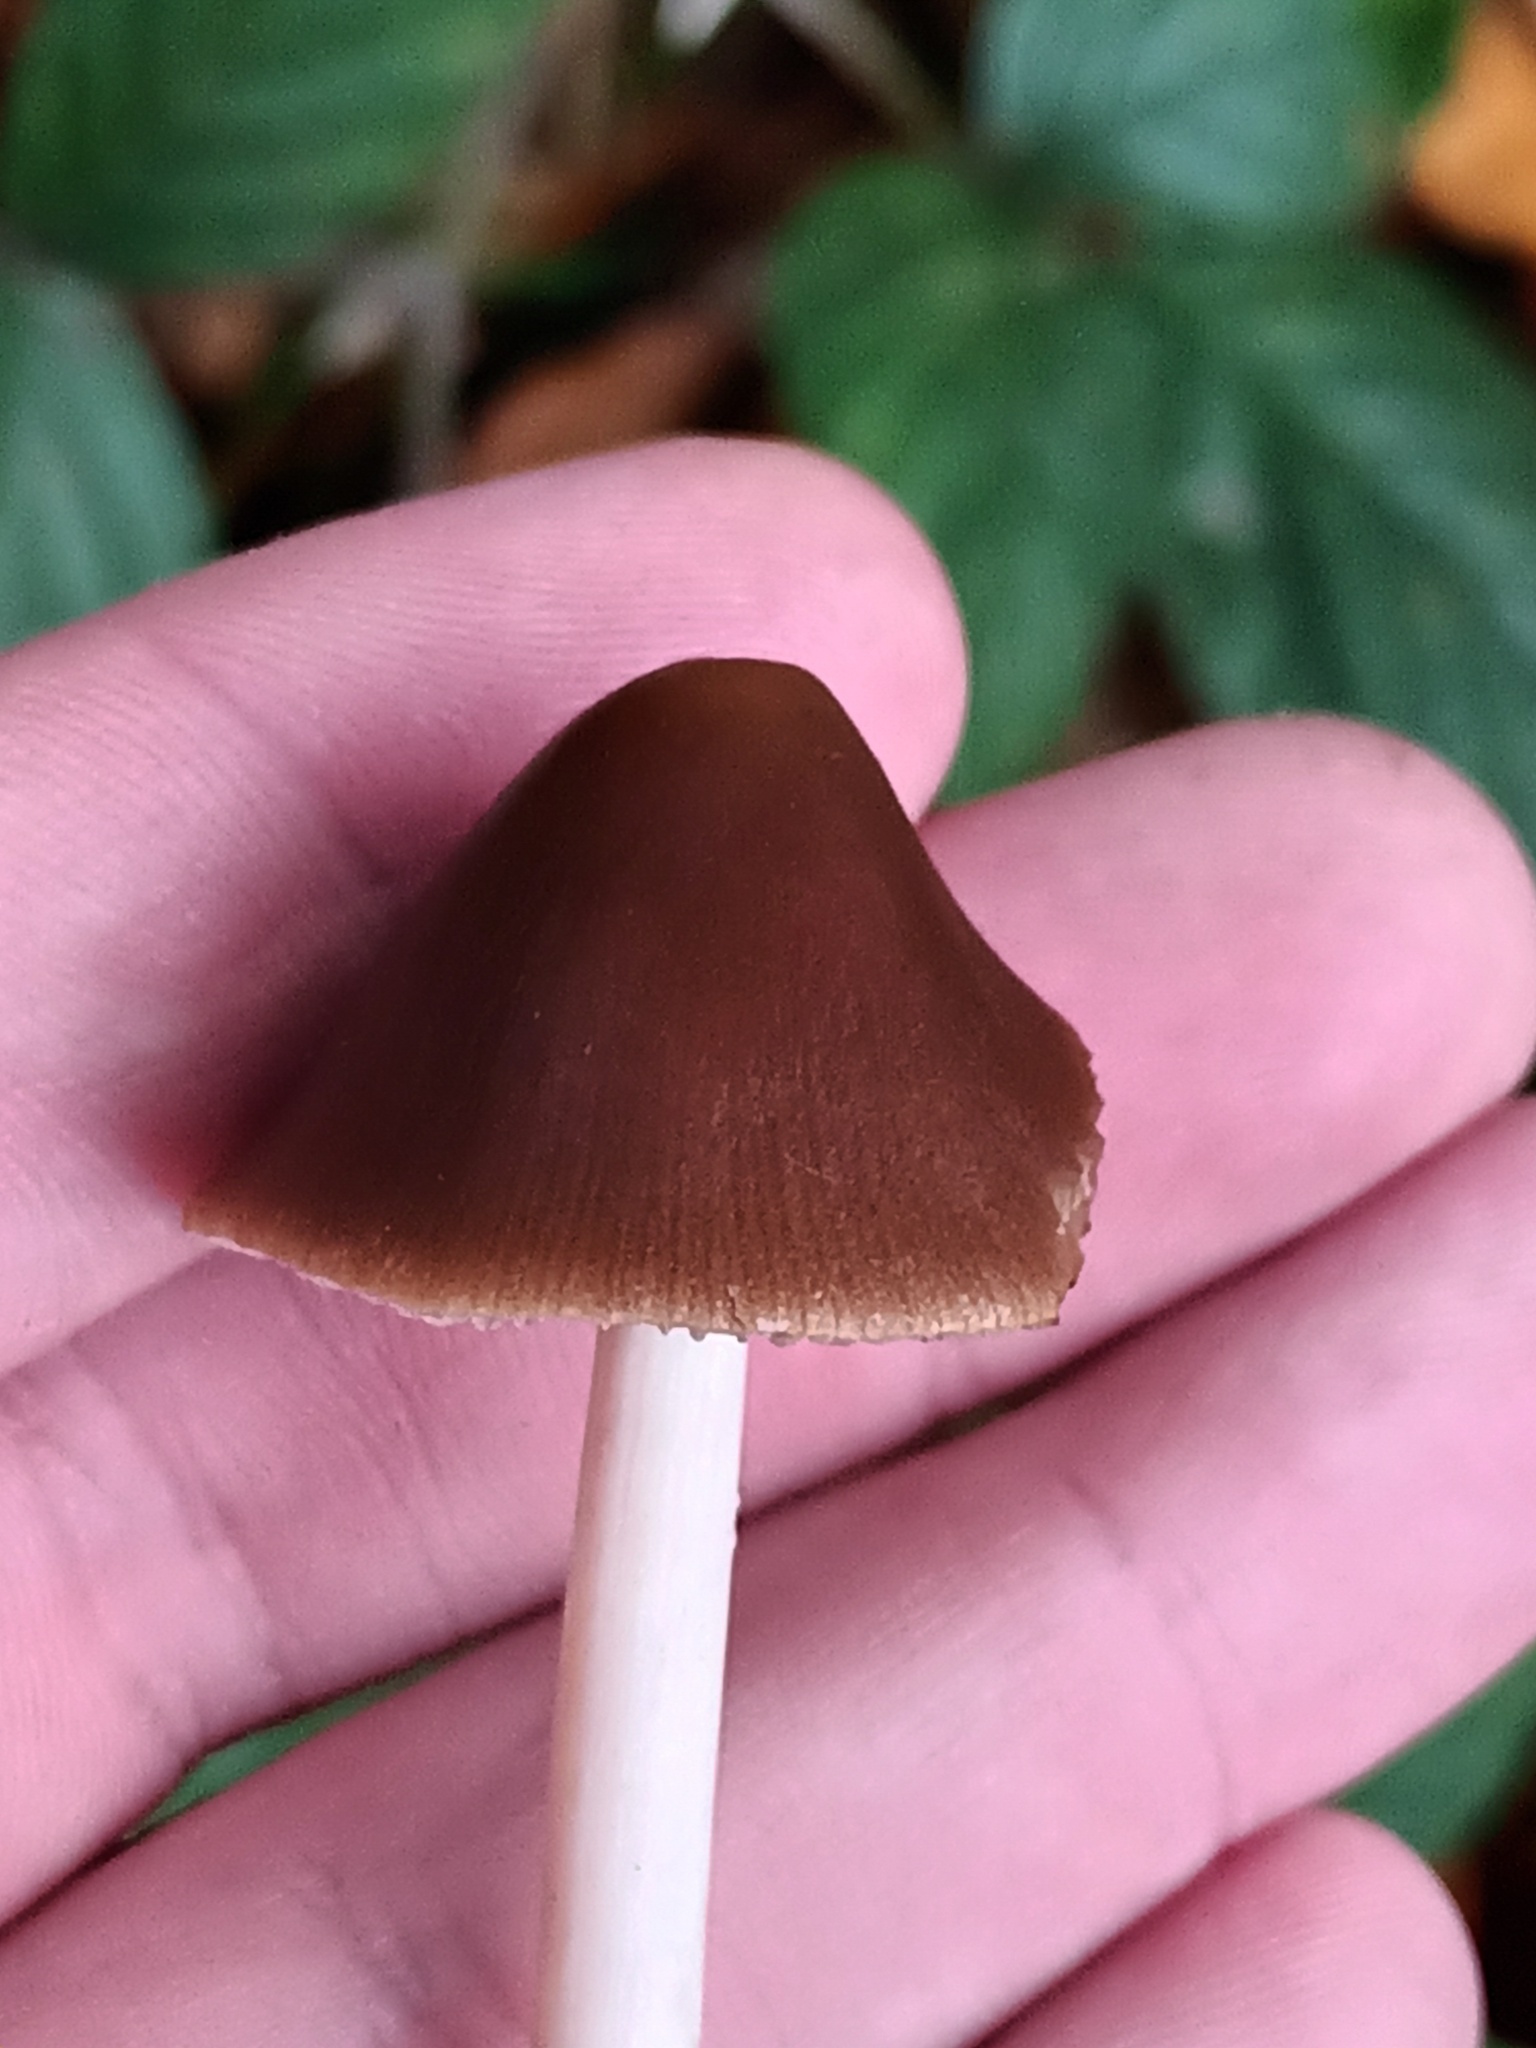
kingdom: Fungi
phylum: Basidiomycota
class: Agaricomycetes
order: Agaricales
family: Psathyrellaceae
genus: Parasola
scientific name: Parasola conopilea
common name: Conical brittlestem
